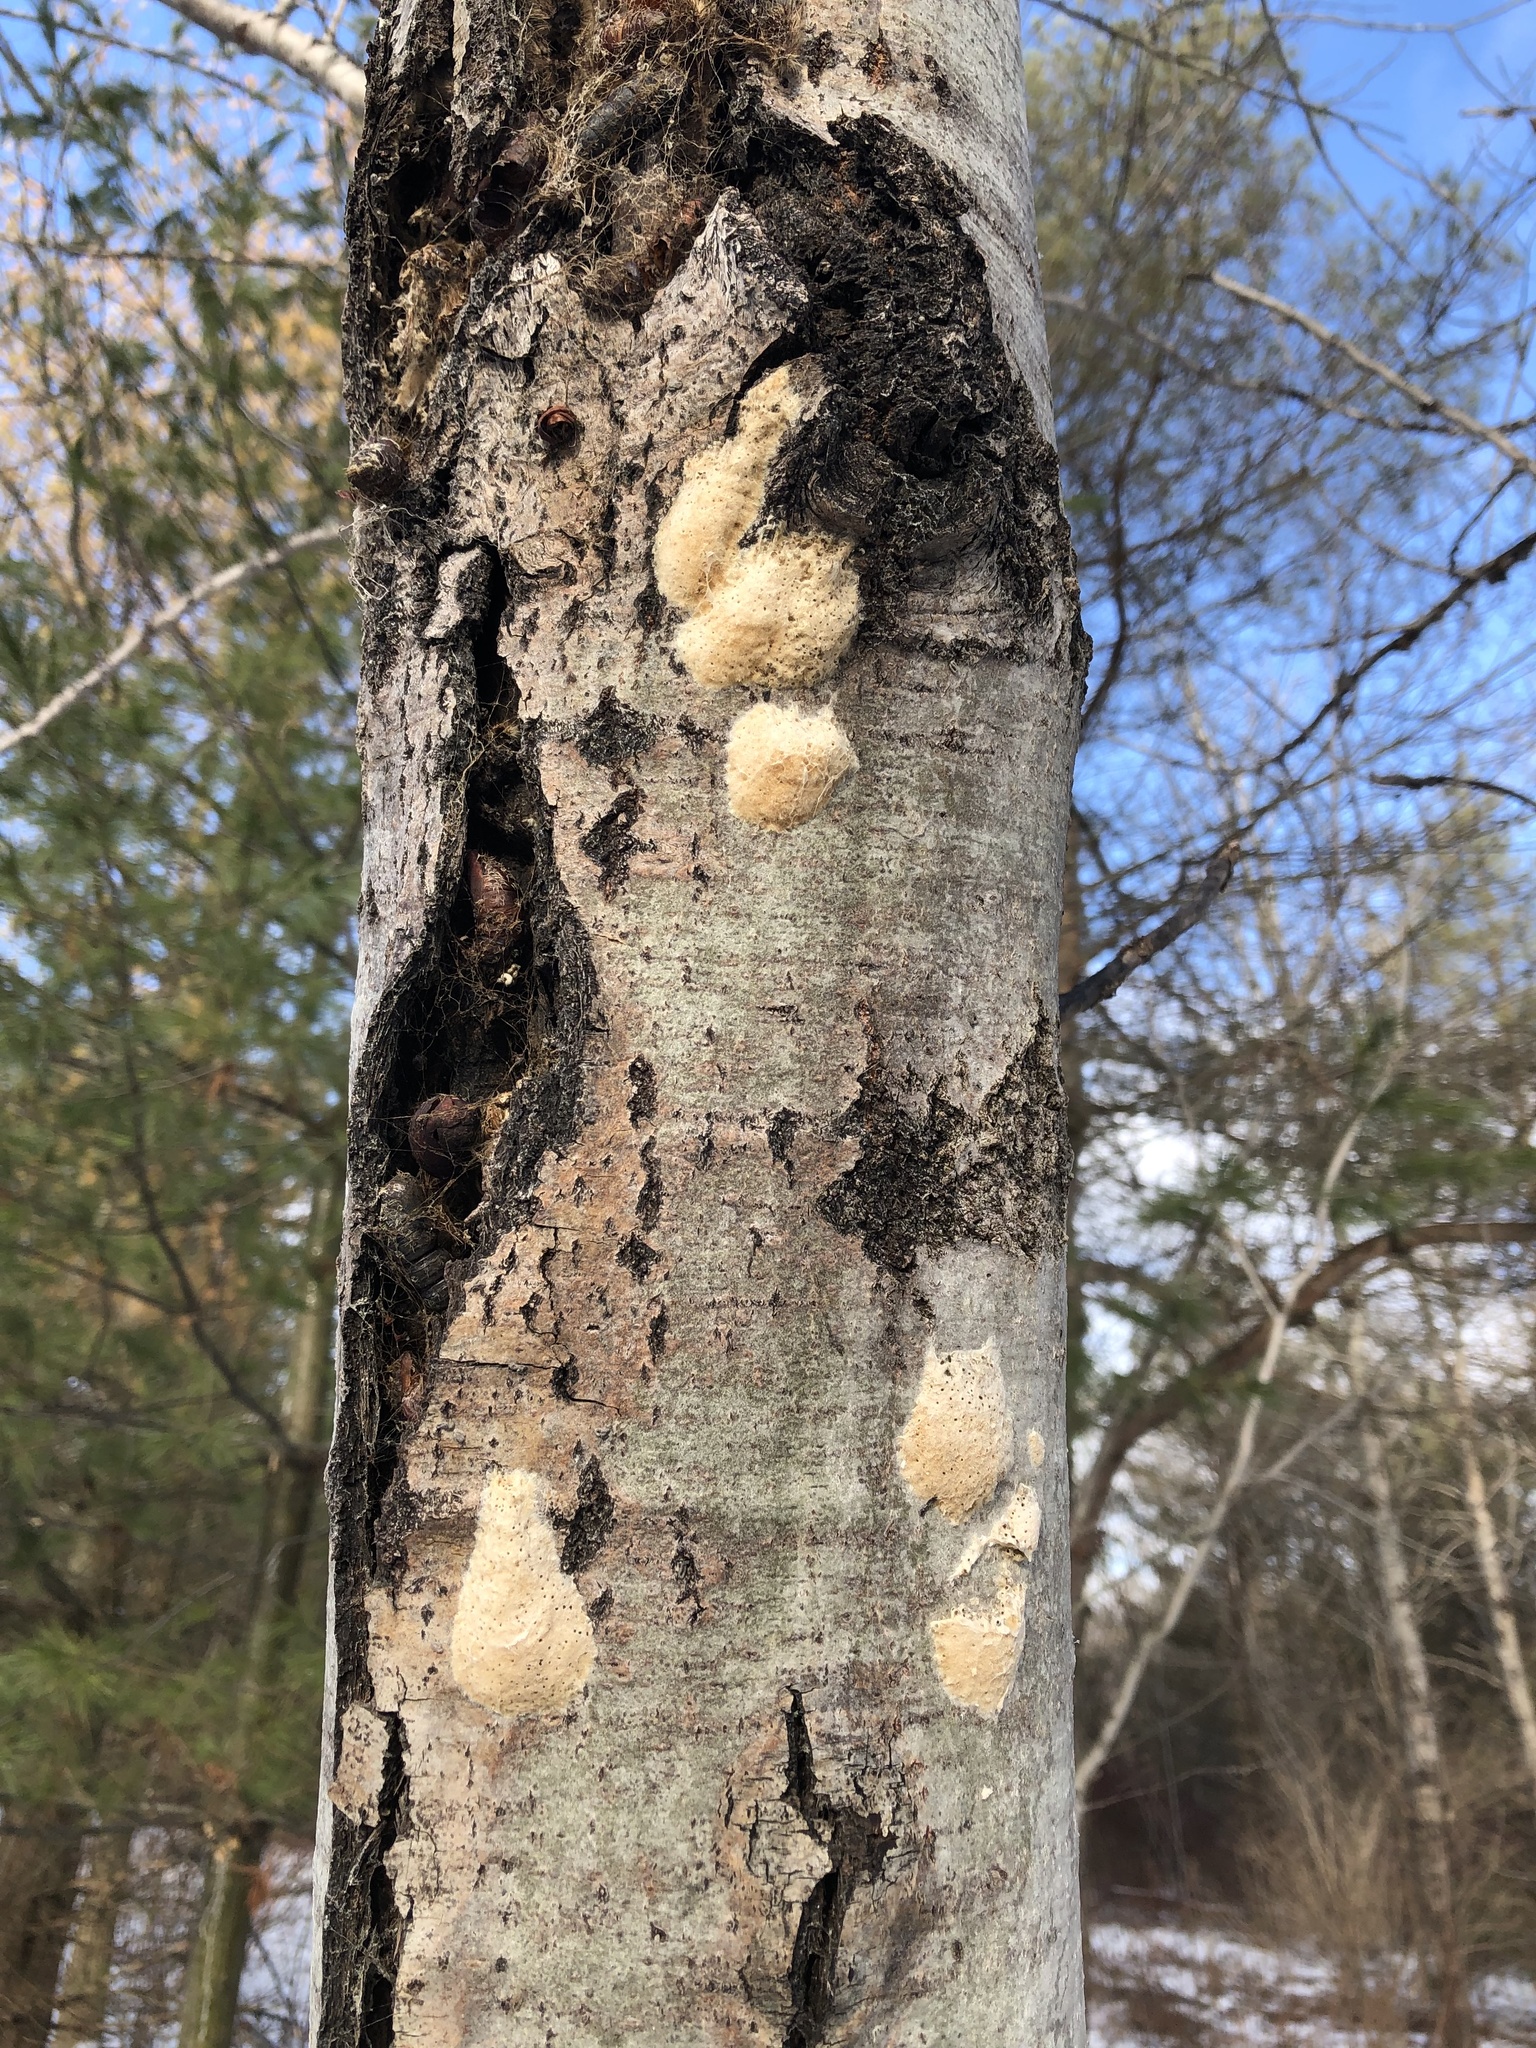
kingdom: Animalia
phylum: Arthropoda
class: Insecta
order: Lepidoptera
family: Erebidae
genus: Lymantria
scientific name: Lymantria dispar
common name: Gypsy moth
